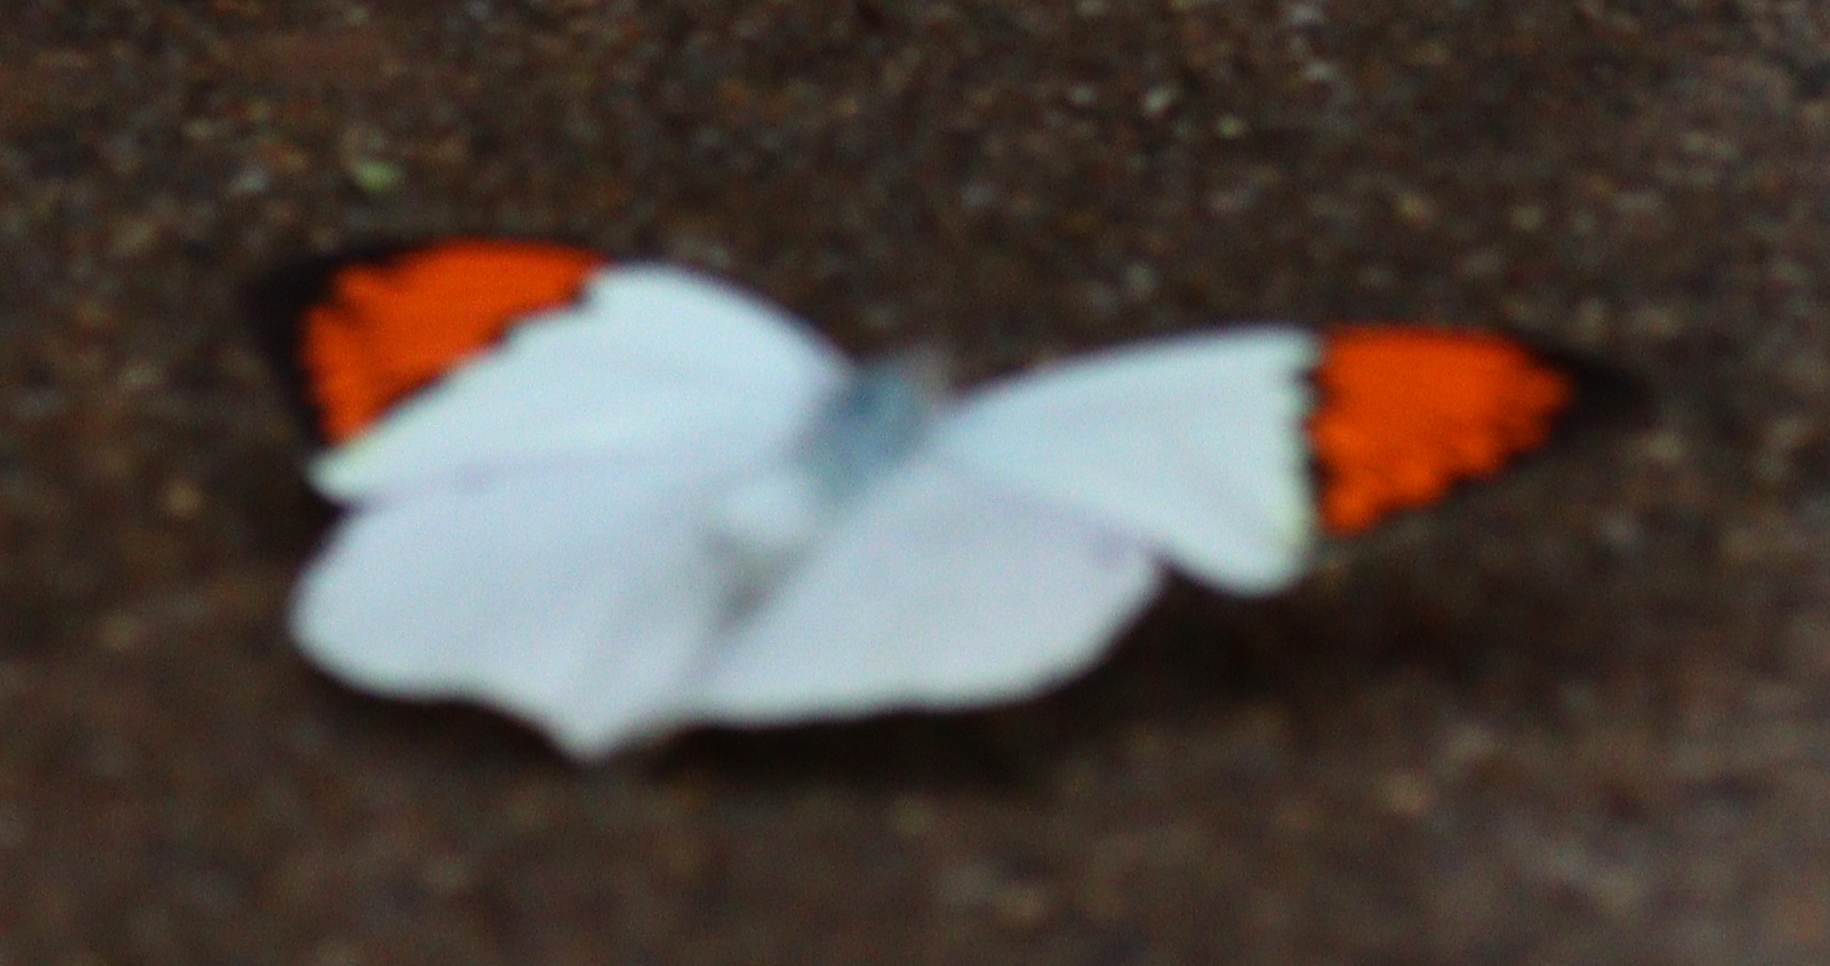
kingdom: Animalia
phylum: Arthropoda
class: Insecta
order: Lepidoptera
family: Pieridae
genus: Hebomoia
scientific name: Hebomoia glaucippe
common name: Great orange tip
